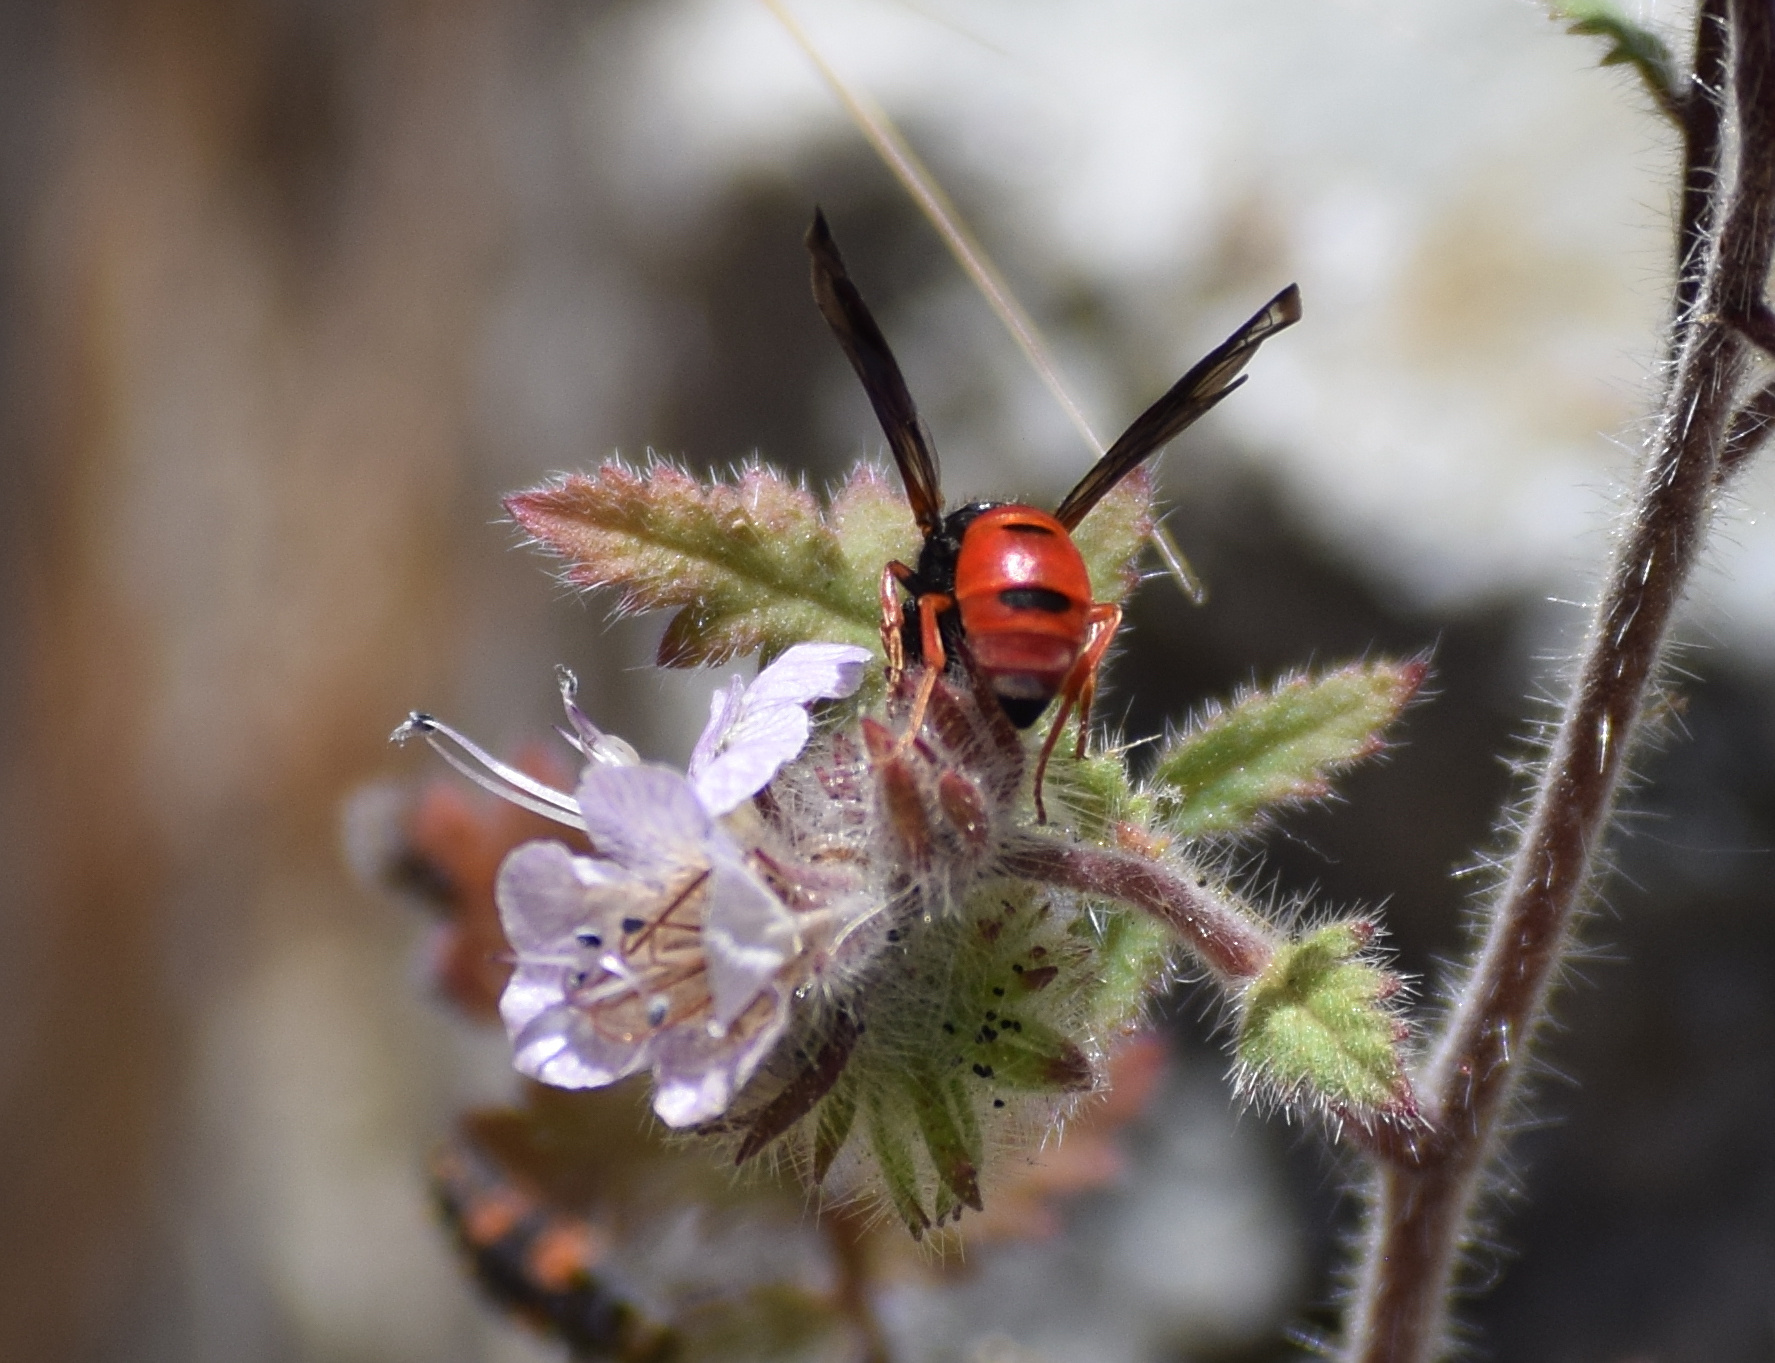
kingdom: Animalia
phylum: Arthropoda
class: Insecta
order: Hymenoptera
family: Vespidae
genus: Odynerus
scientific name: Odynerus erythrogaster
